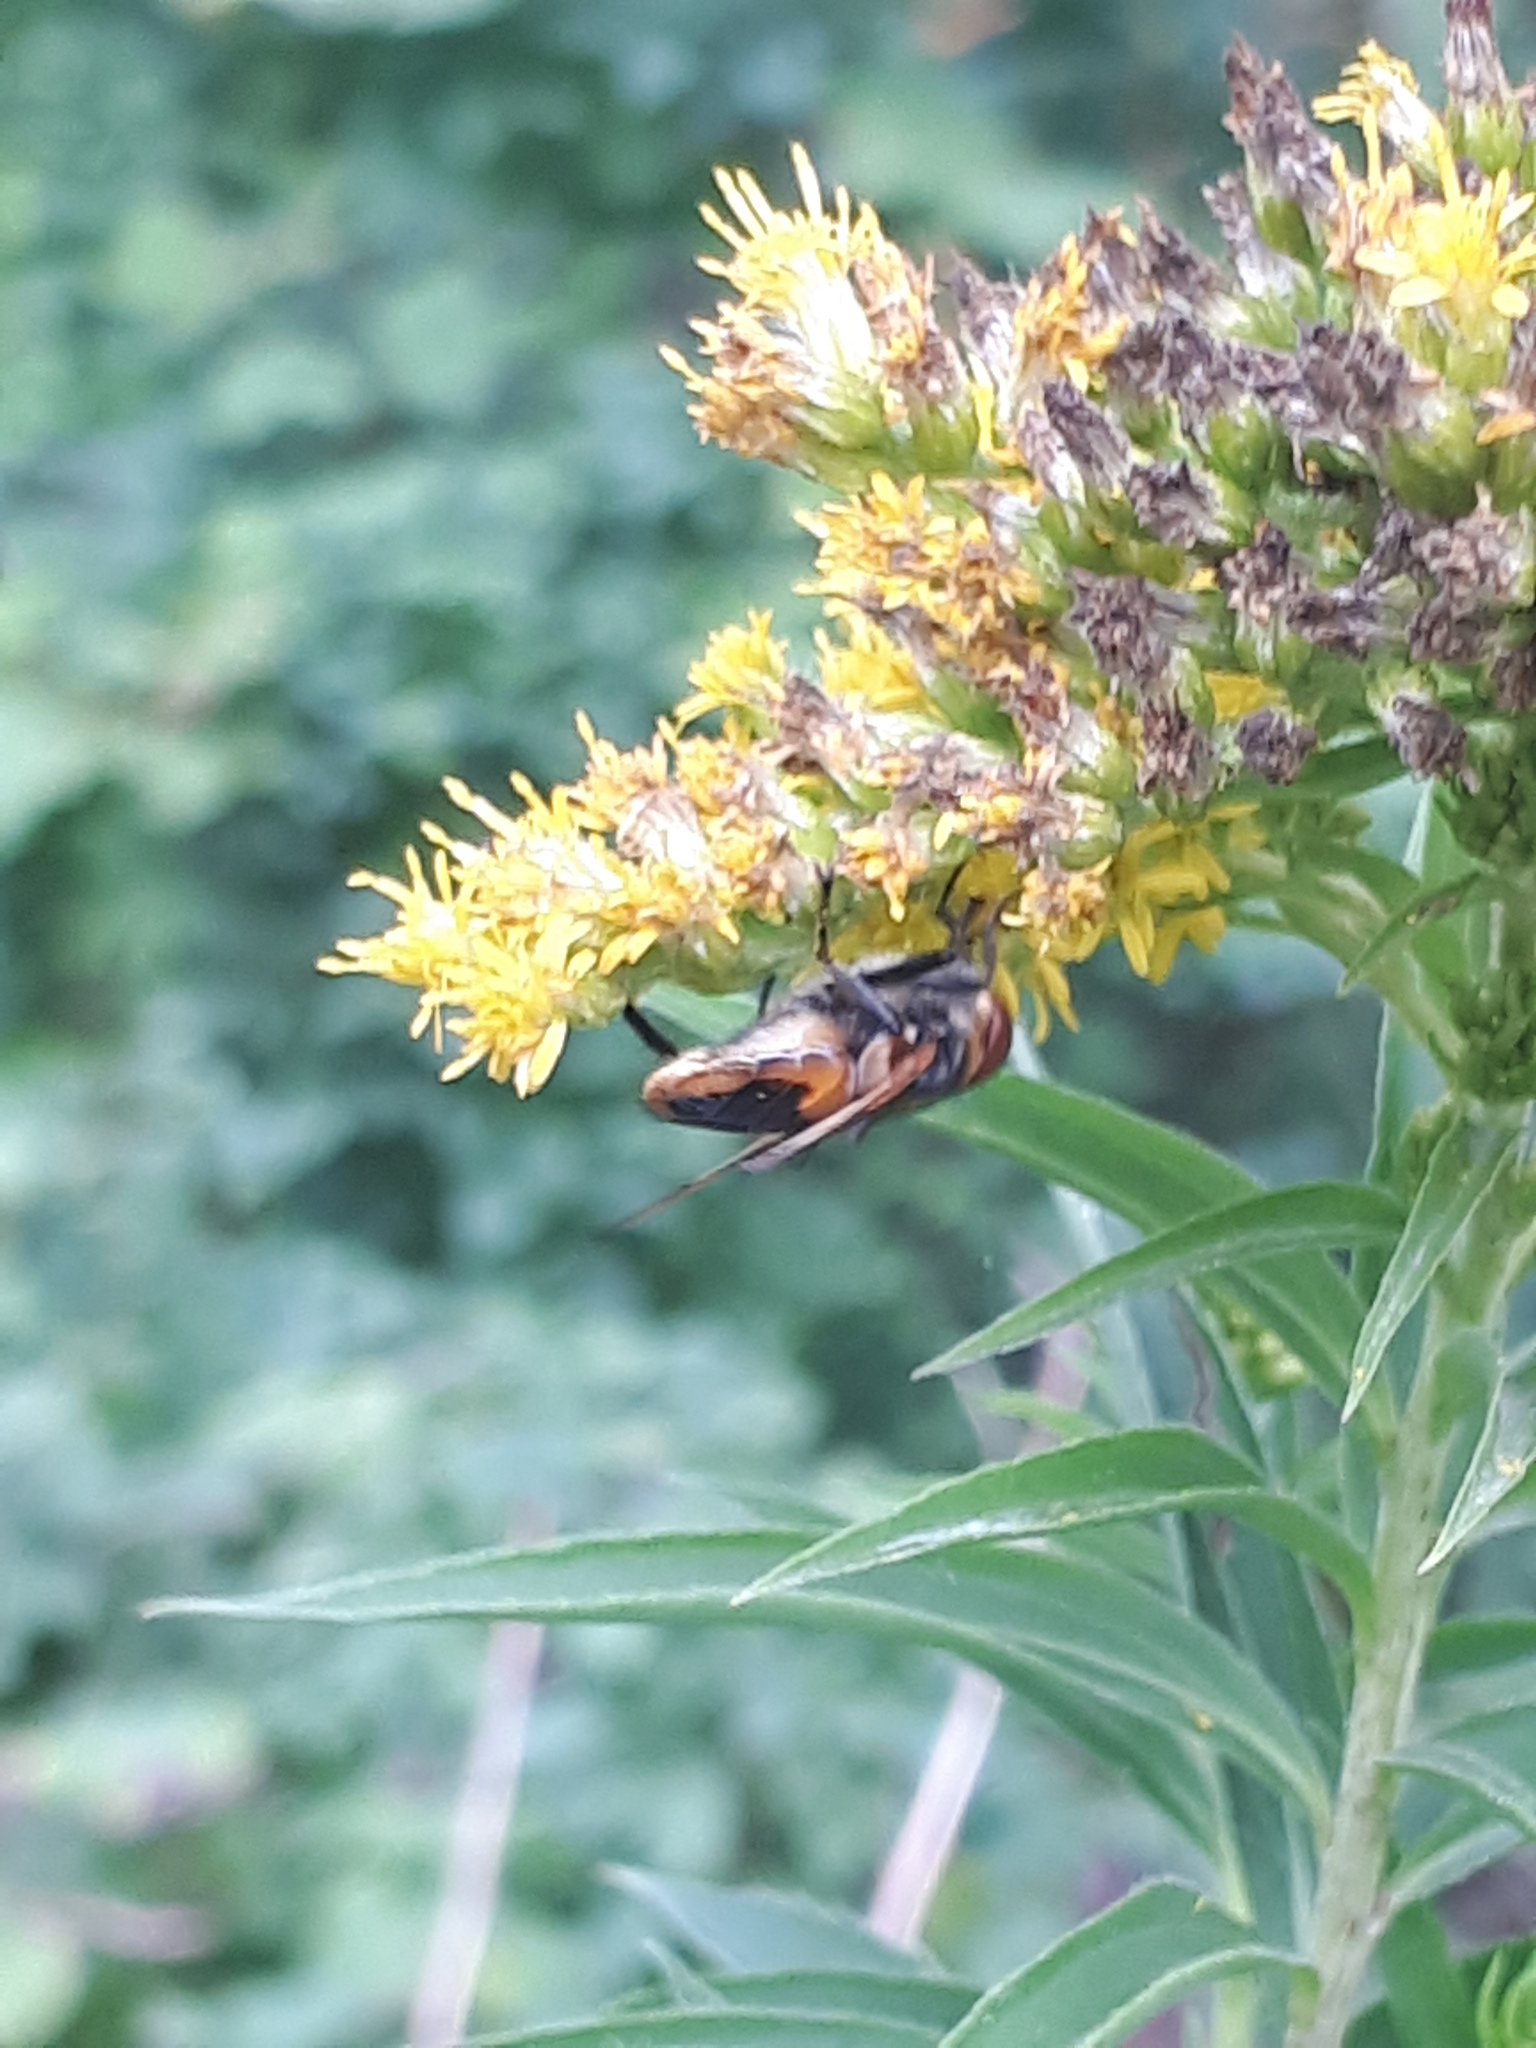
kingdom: Animalia
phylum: Arthropoda
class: Insecta
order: Diptera
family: Tachinidae
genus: Phasia
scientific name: Phasia aurigera
